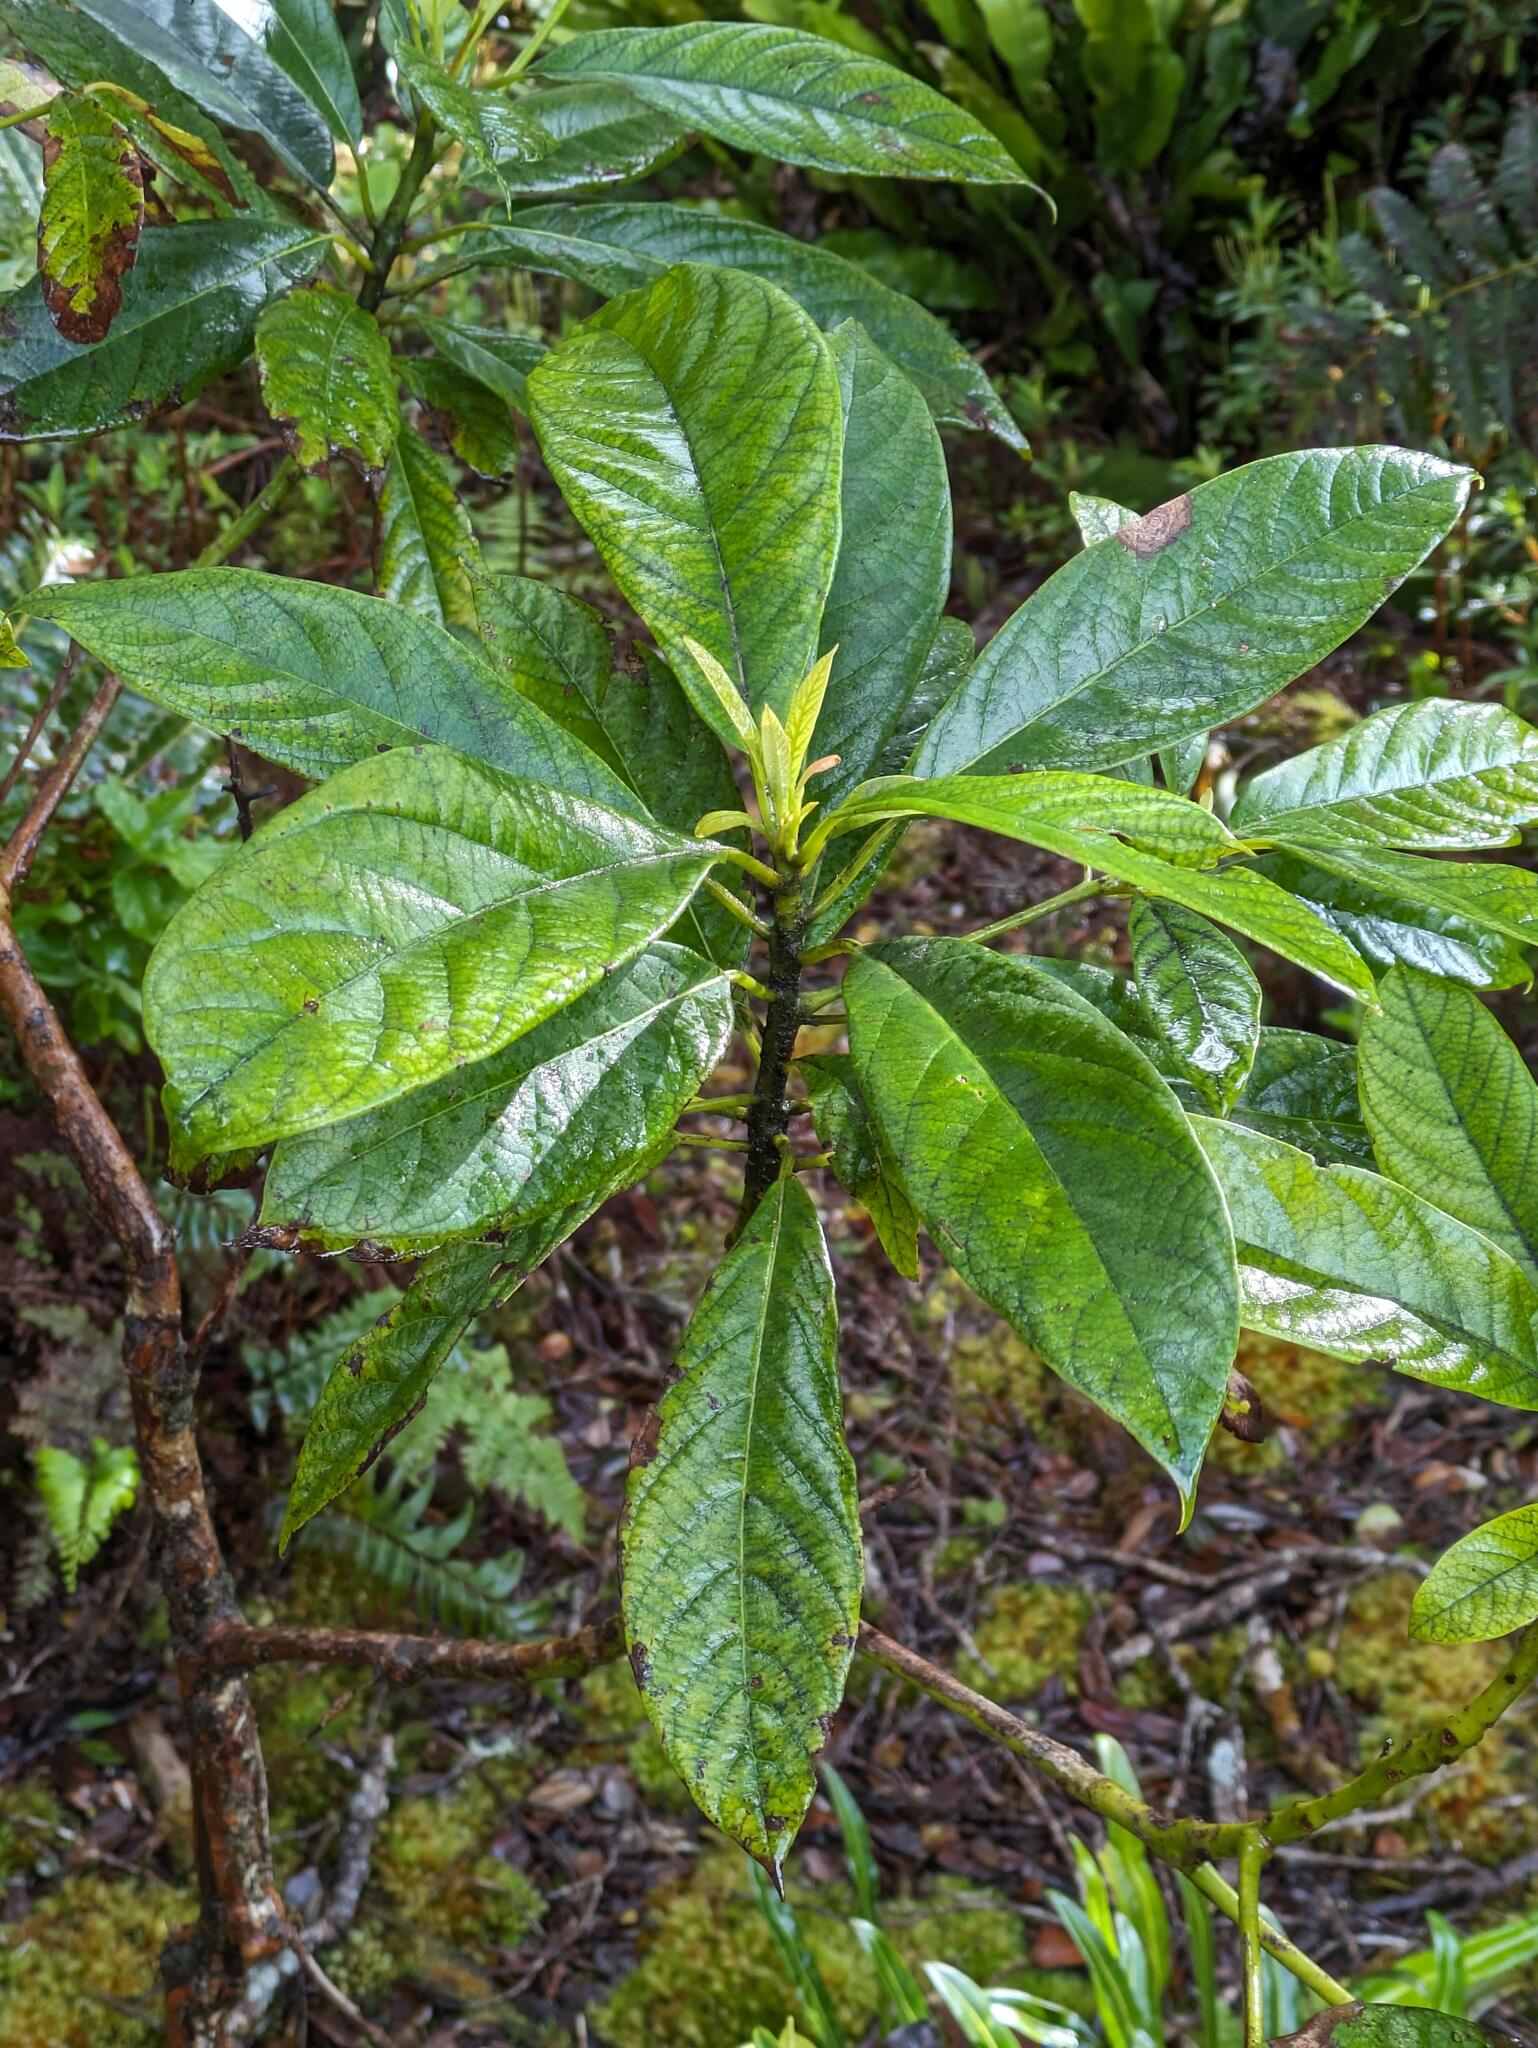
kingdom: Plantae
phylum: Tracheophyta
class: Magnoliopsida
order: Laurales
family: Lauraceae
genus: Persea
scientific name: Persea americana
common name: Avocado
